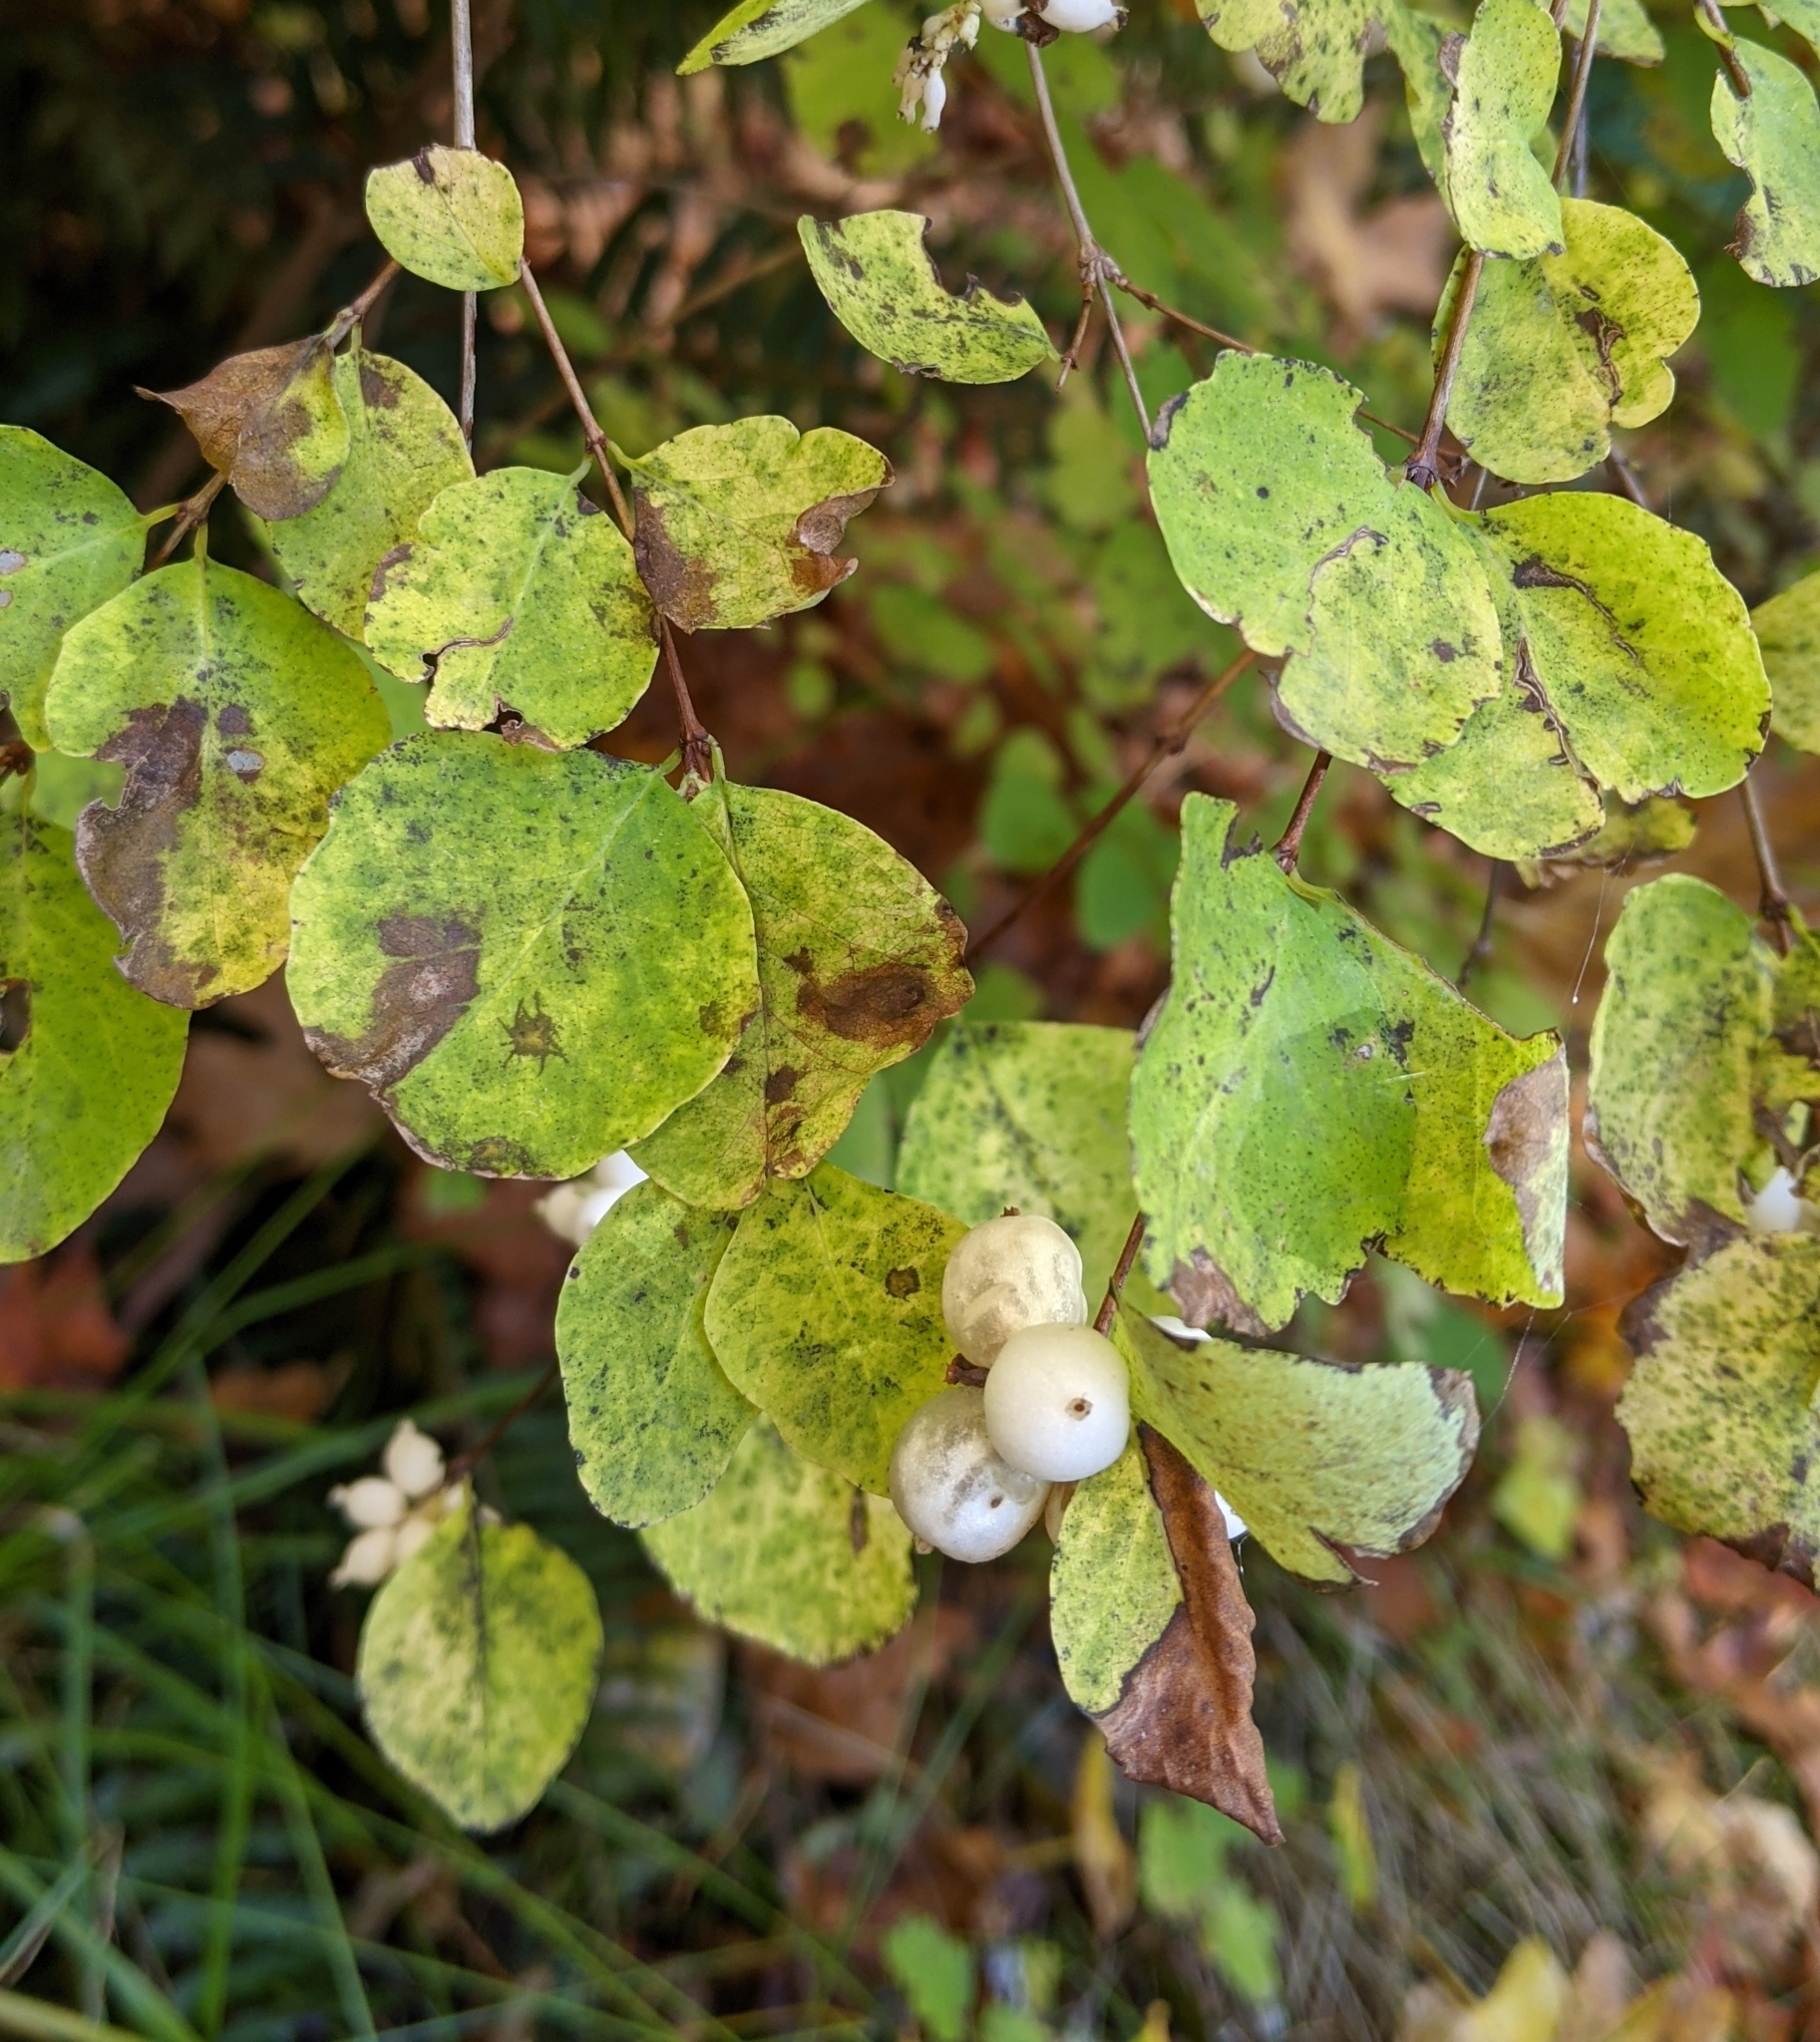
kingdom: Plantae
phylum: Tracheophyta
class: Magnoliopsida
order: Dipsacales
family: Caprifoliaceae
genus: Symphoricarpos
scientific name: Symphoricarpos albus
